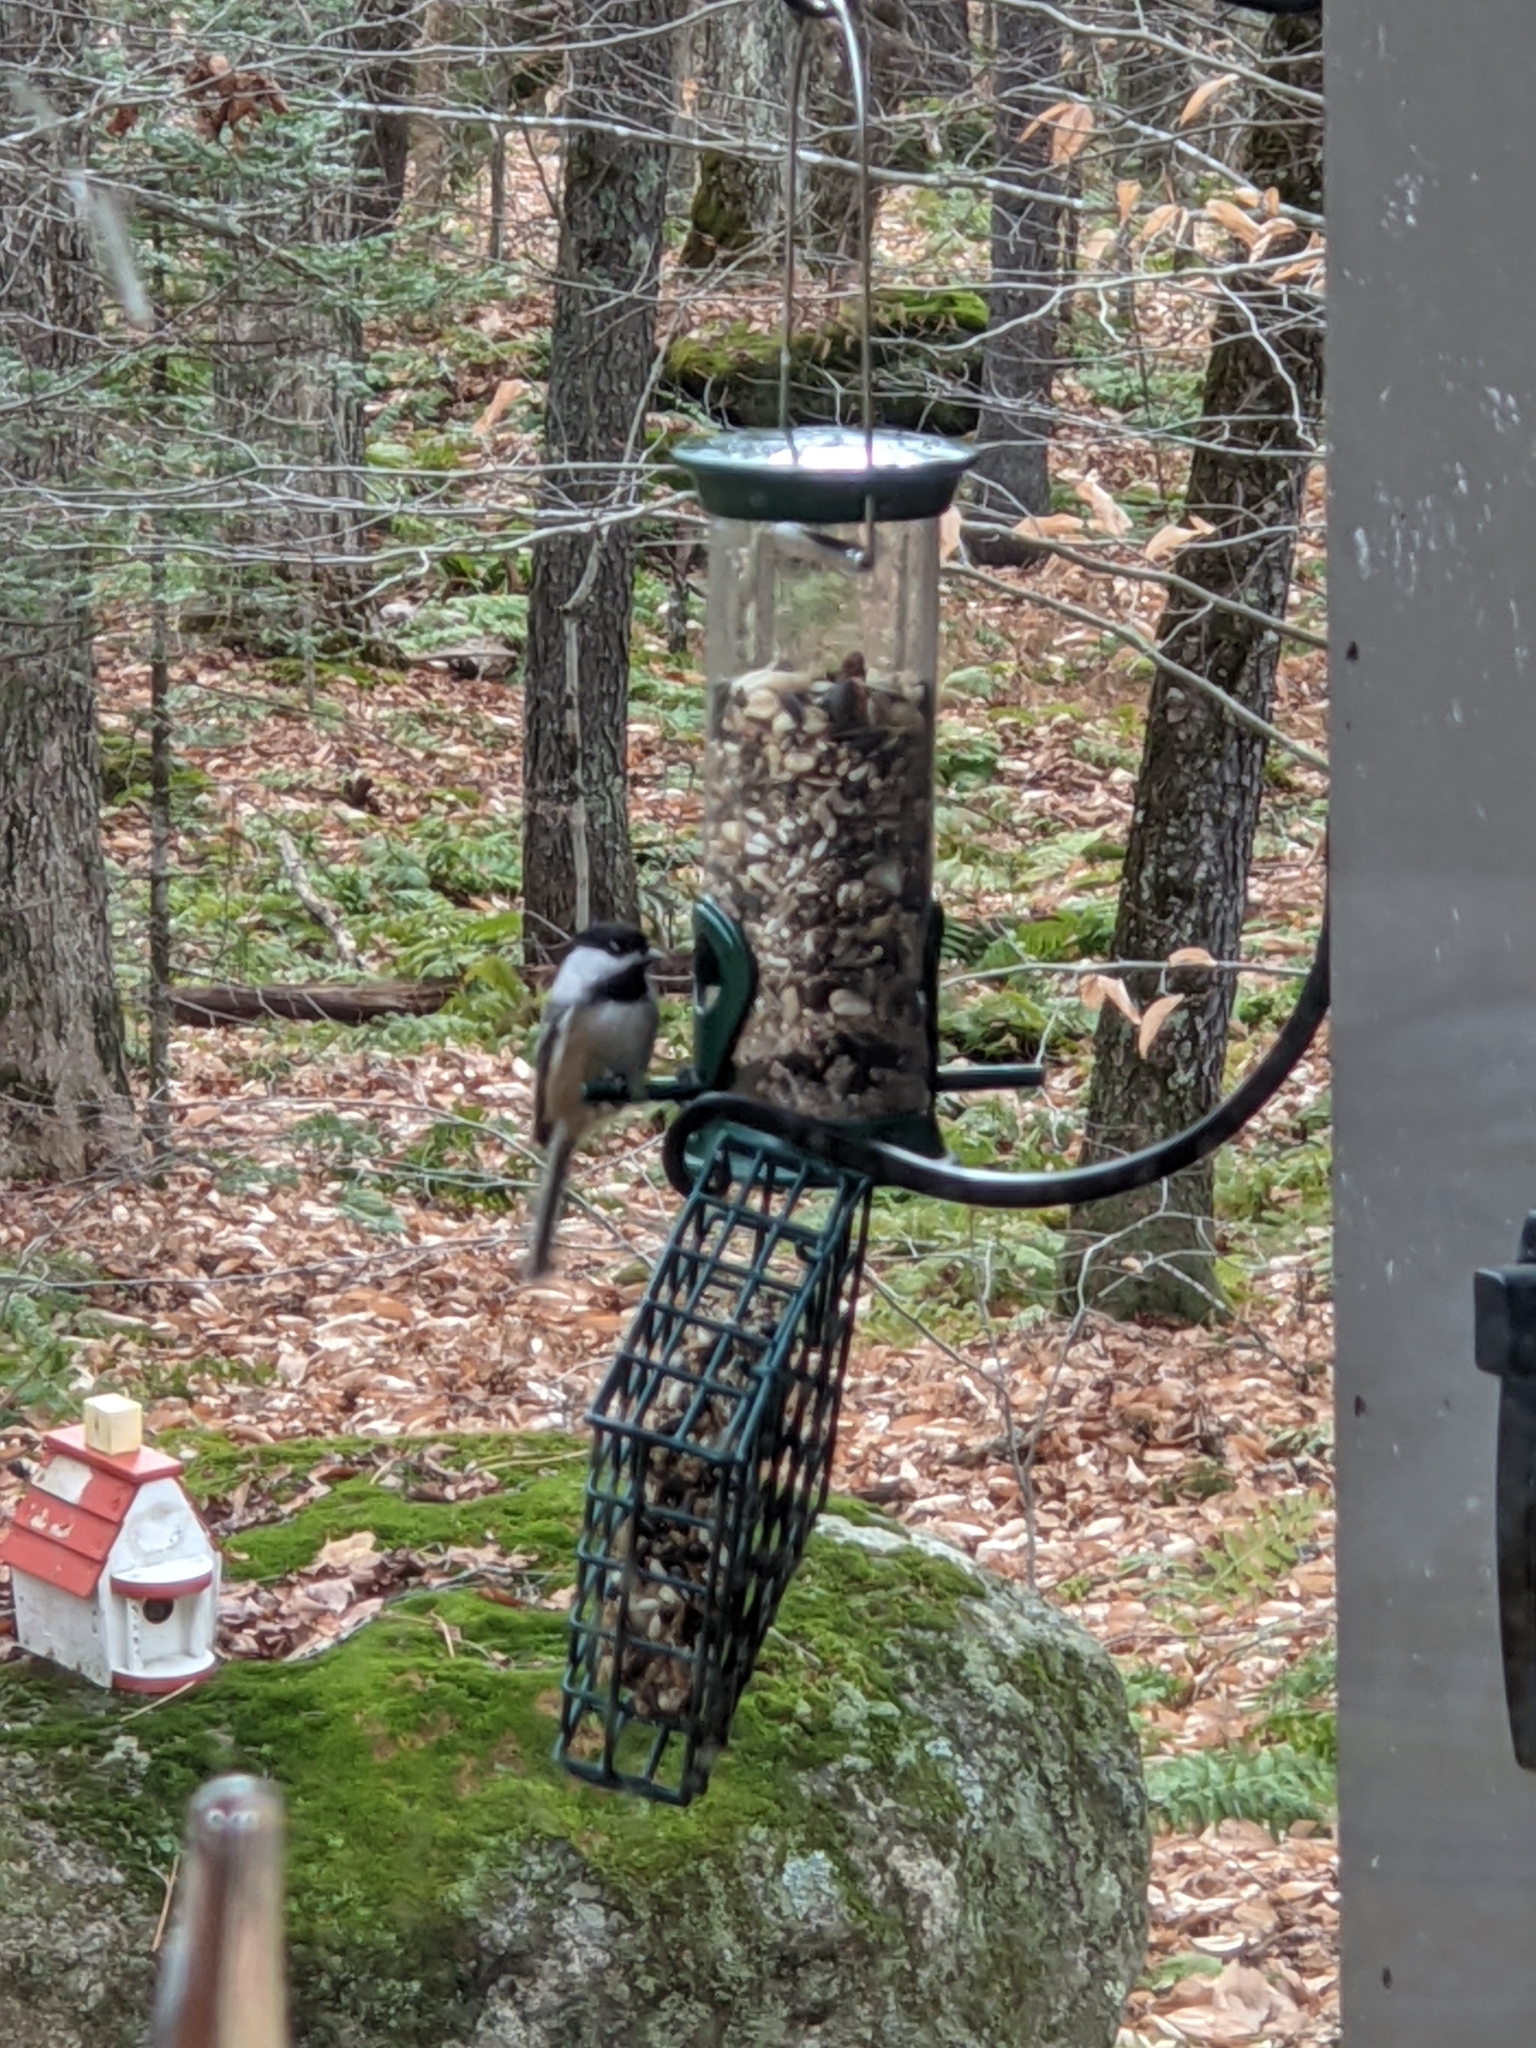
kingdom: Animalia
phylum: Chordata
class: Aves
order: Passeriformes
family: Paridae
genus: Poecile
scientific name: Poecile atricapillus
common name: Black-capped chickadee
